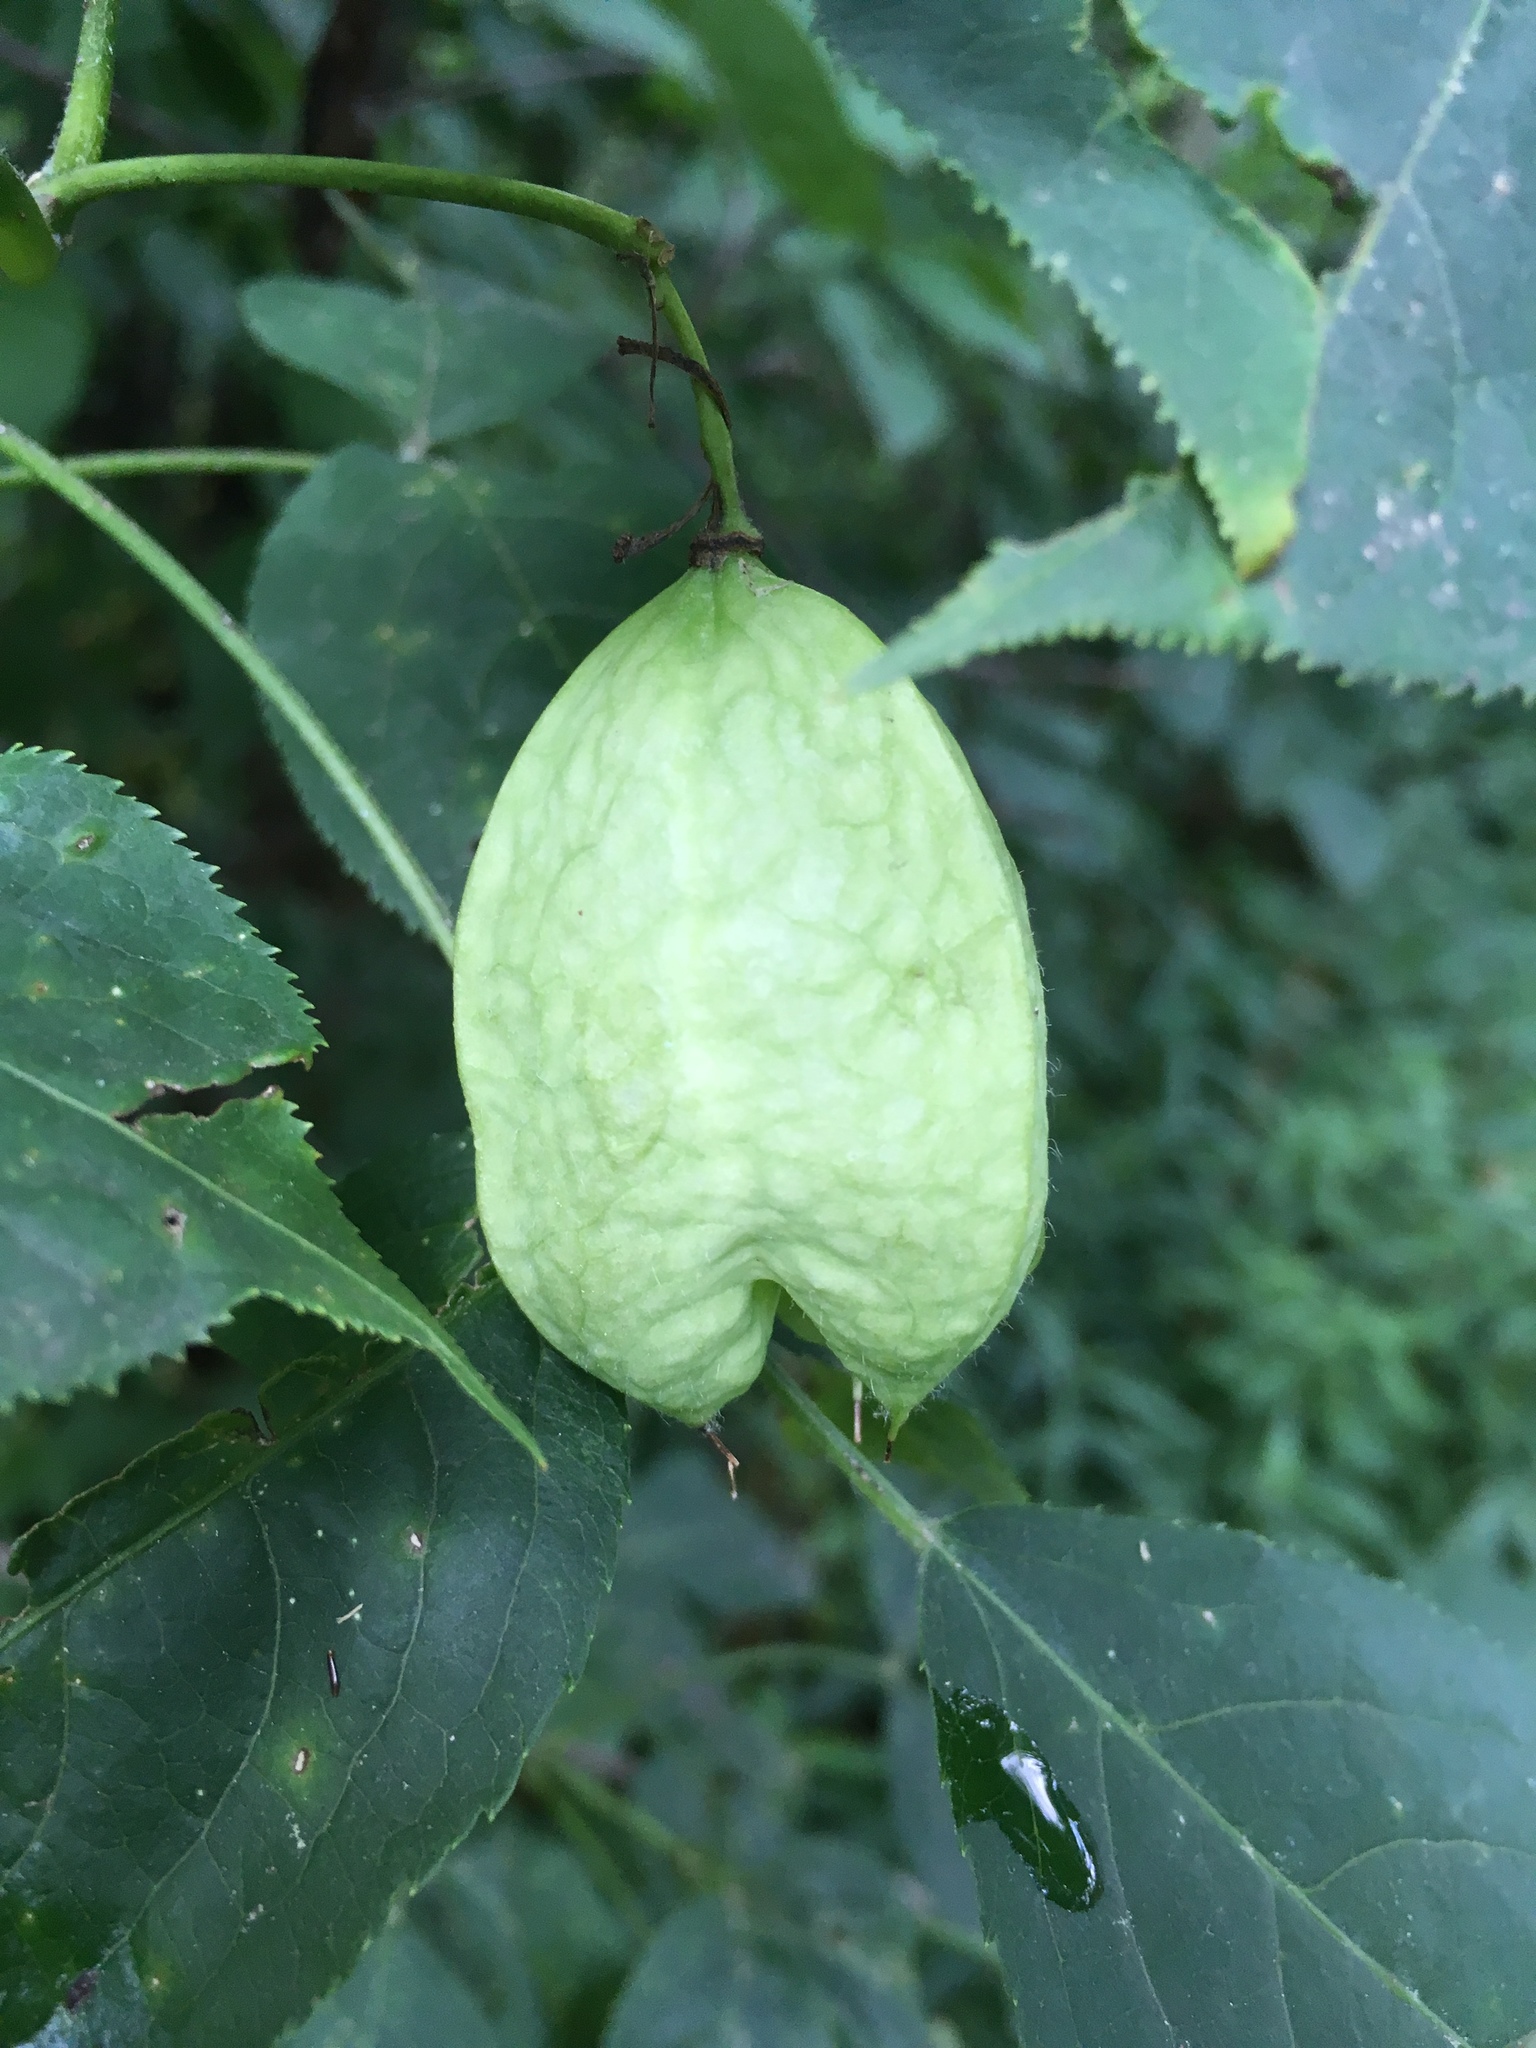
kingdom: Plantae
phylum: Tracheophyta
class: Magnoliopsida
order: Crossosomatales
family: Staphyleaceae
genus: Staphylea
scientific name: Staphylea trifolia
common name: American bladdernut
